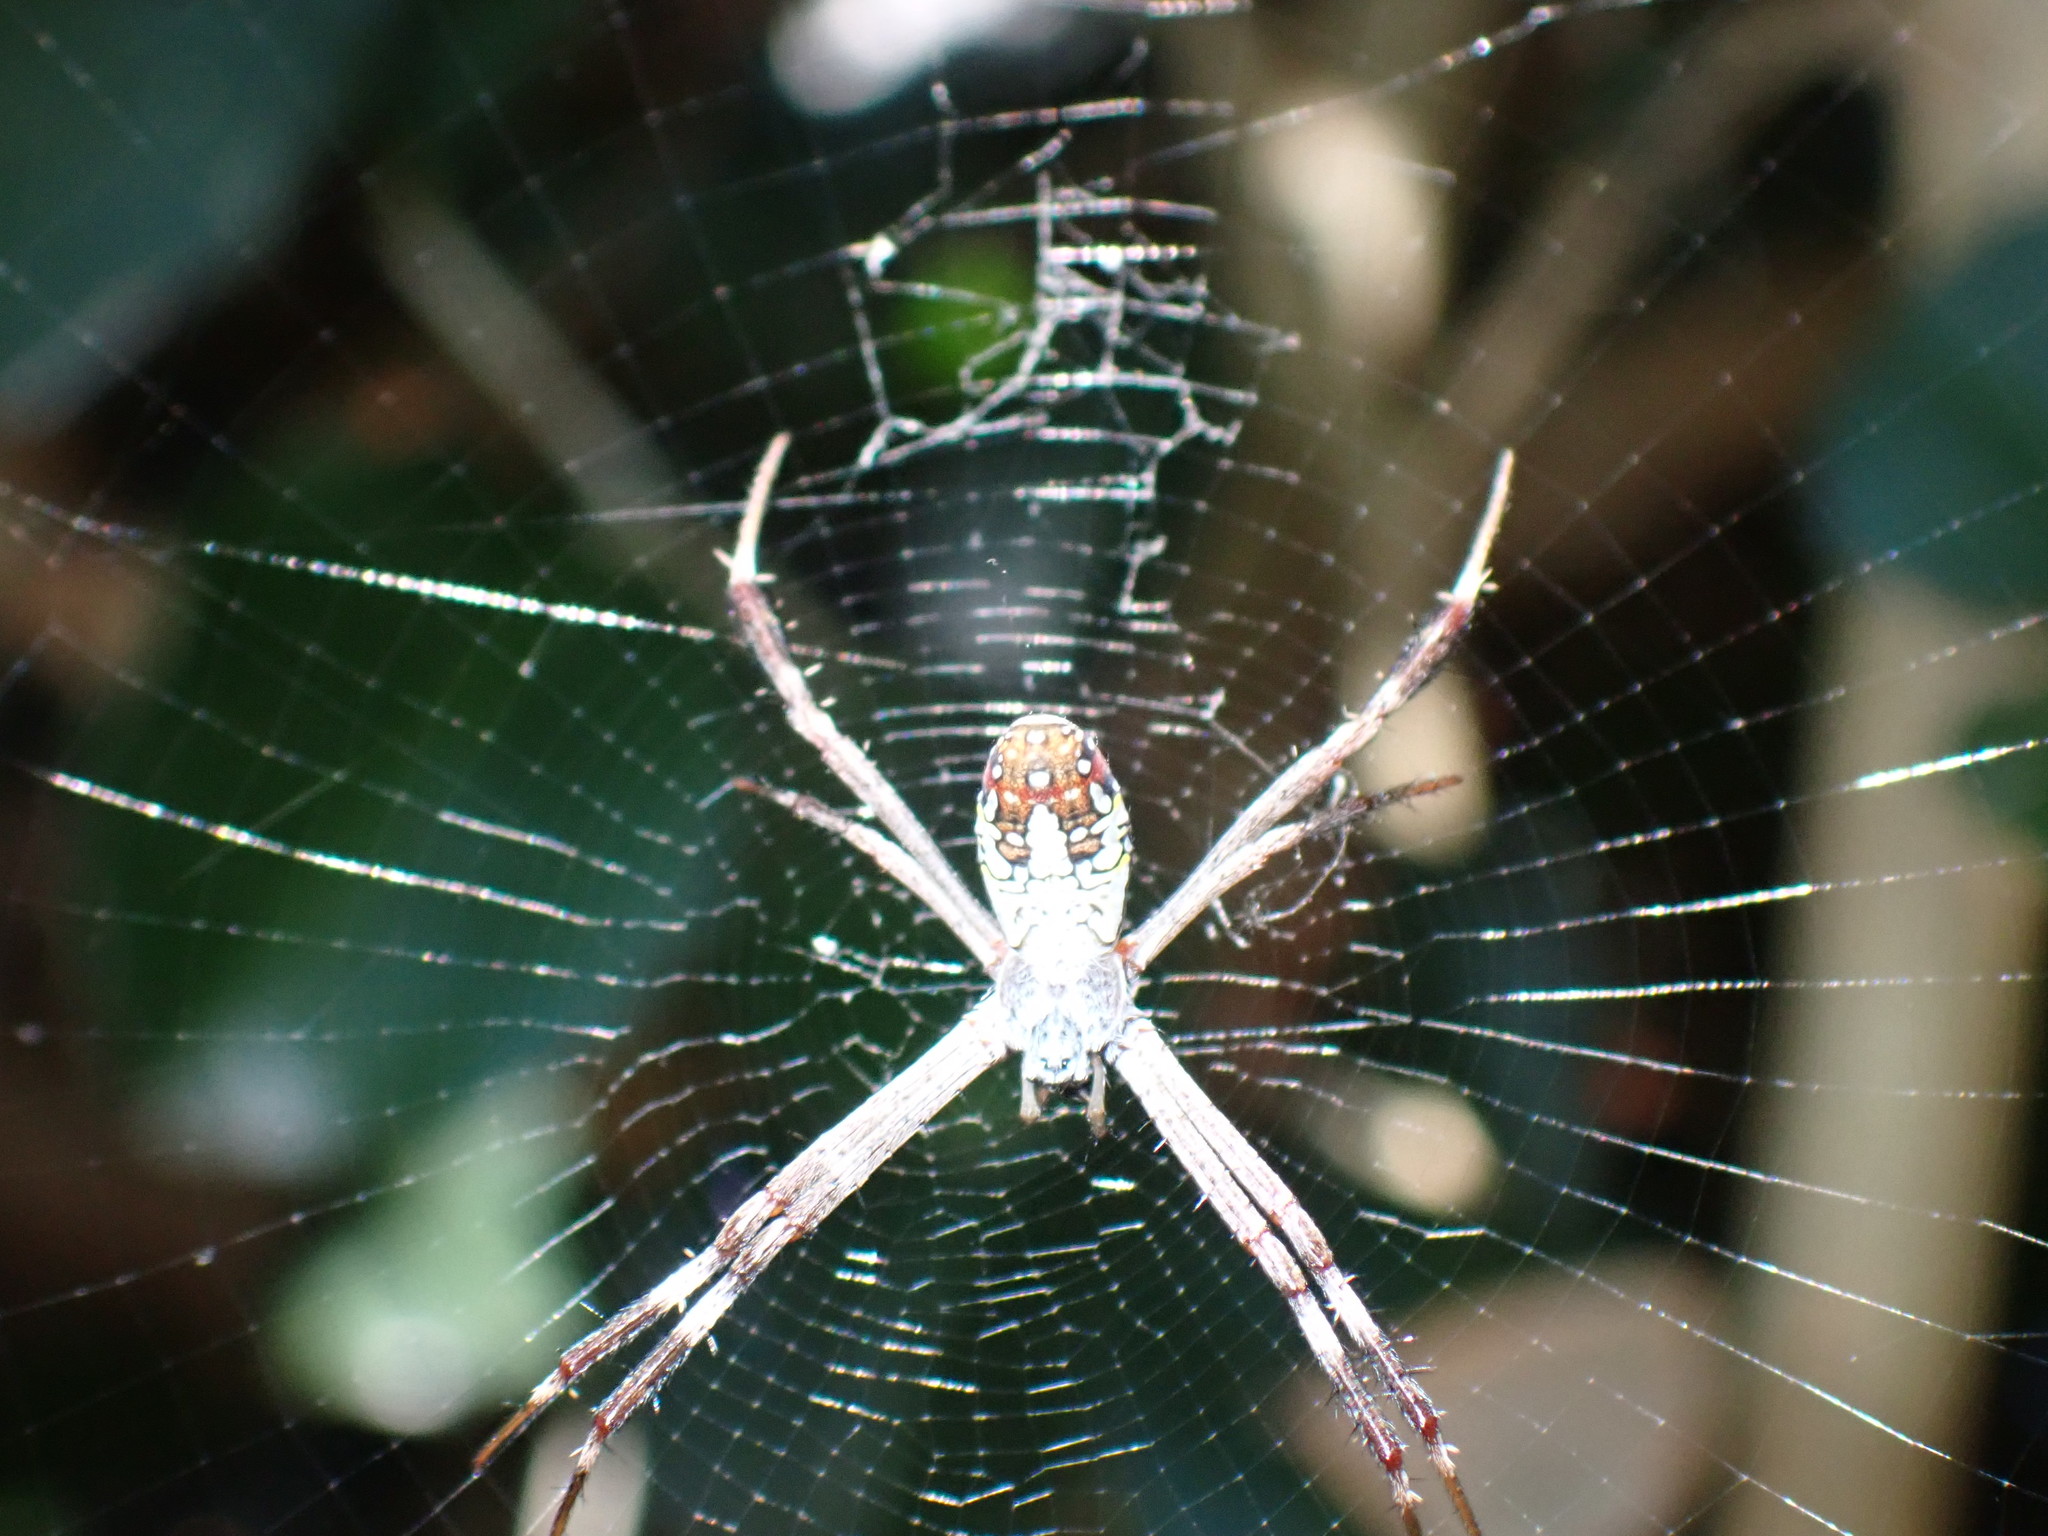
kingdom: Animalia
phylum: Arthropoda
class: Arachnida
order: Araneae
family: Araneidae
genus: Argiope
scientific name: Argiope dang
